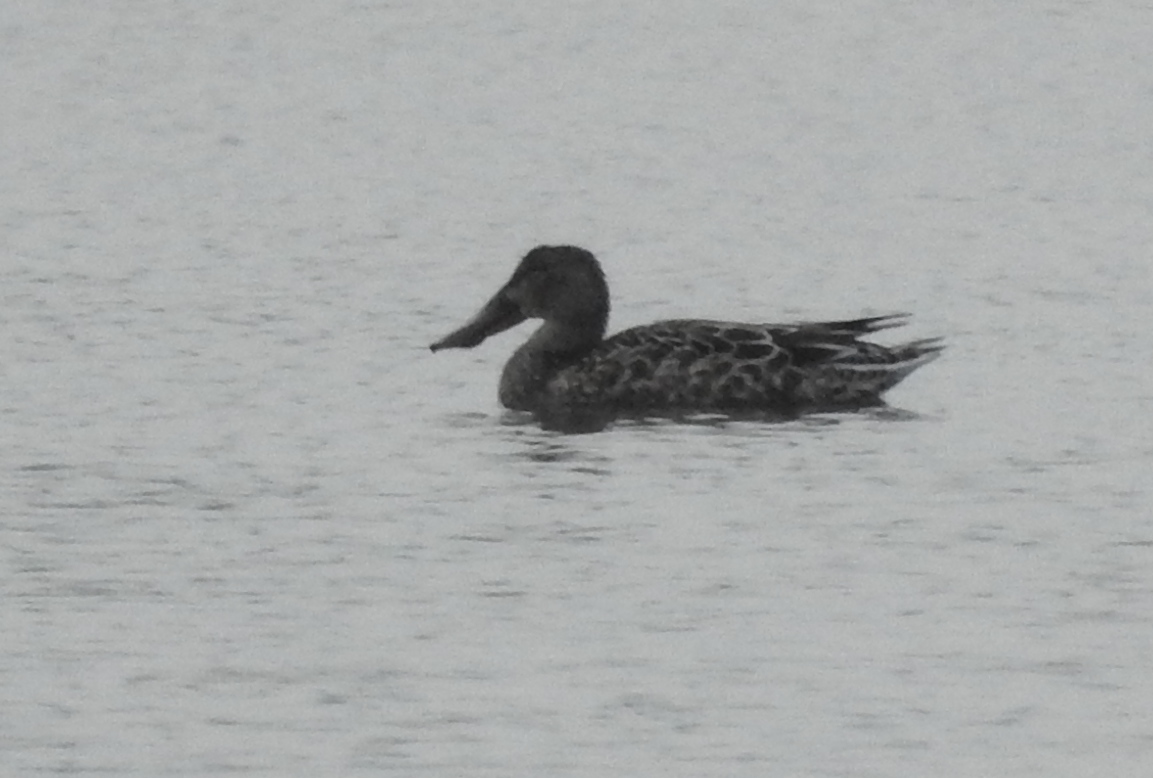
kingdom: Animalia
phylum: Chordata
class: Aves
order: Anseriformes
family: Anatidae
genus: Spatula
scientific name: Spatula clypeata
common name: Northern shoveler
